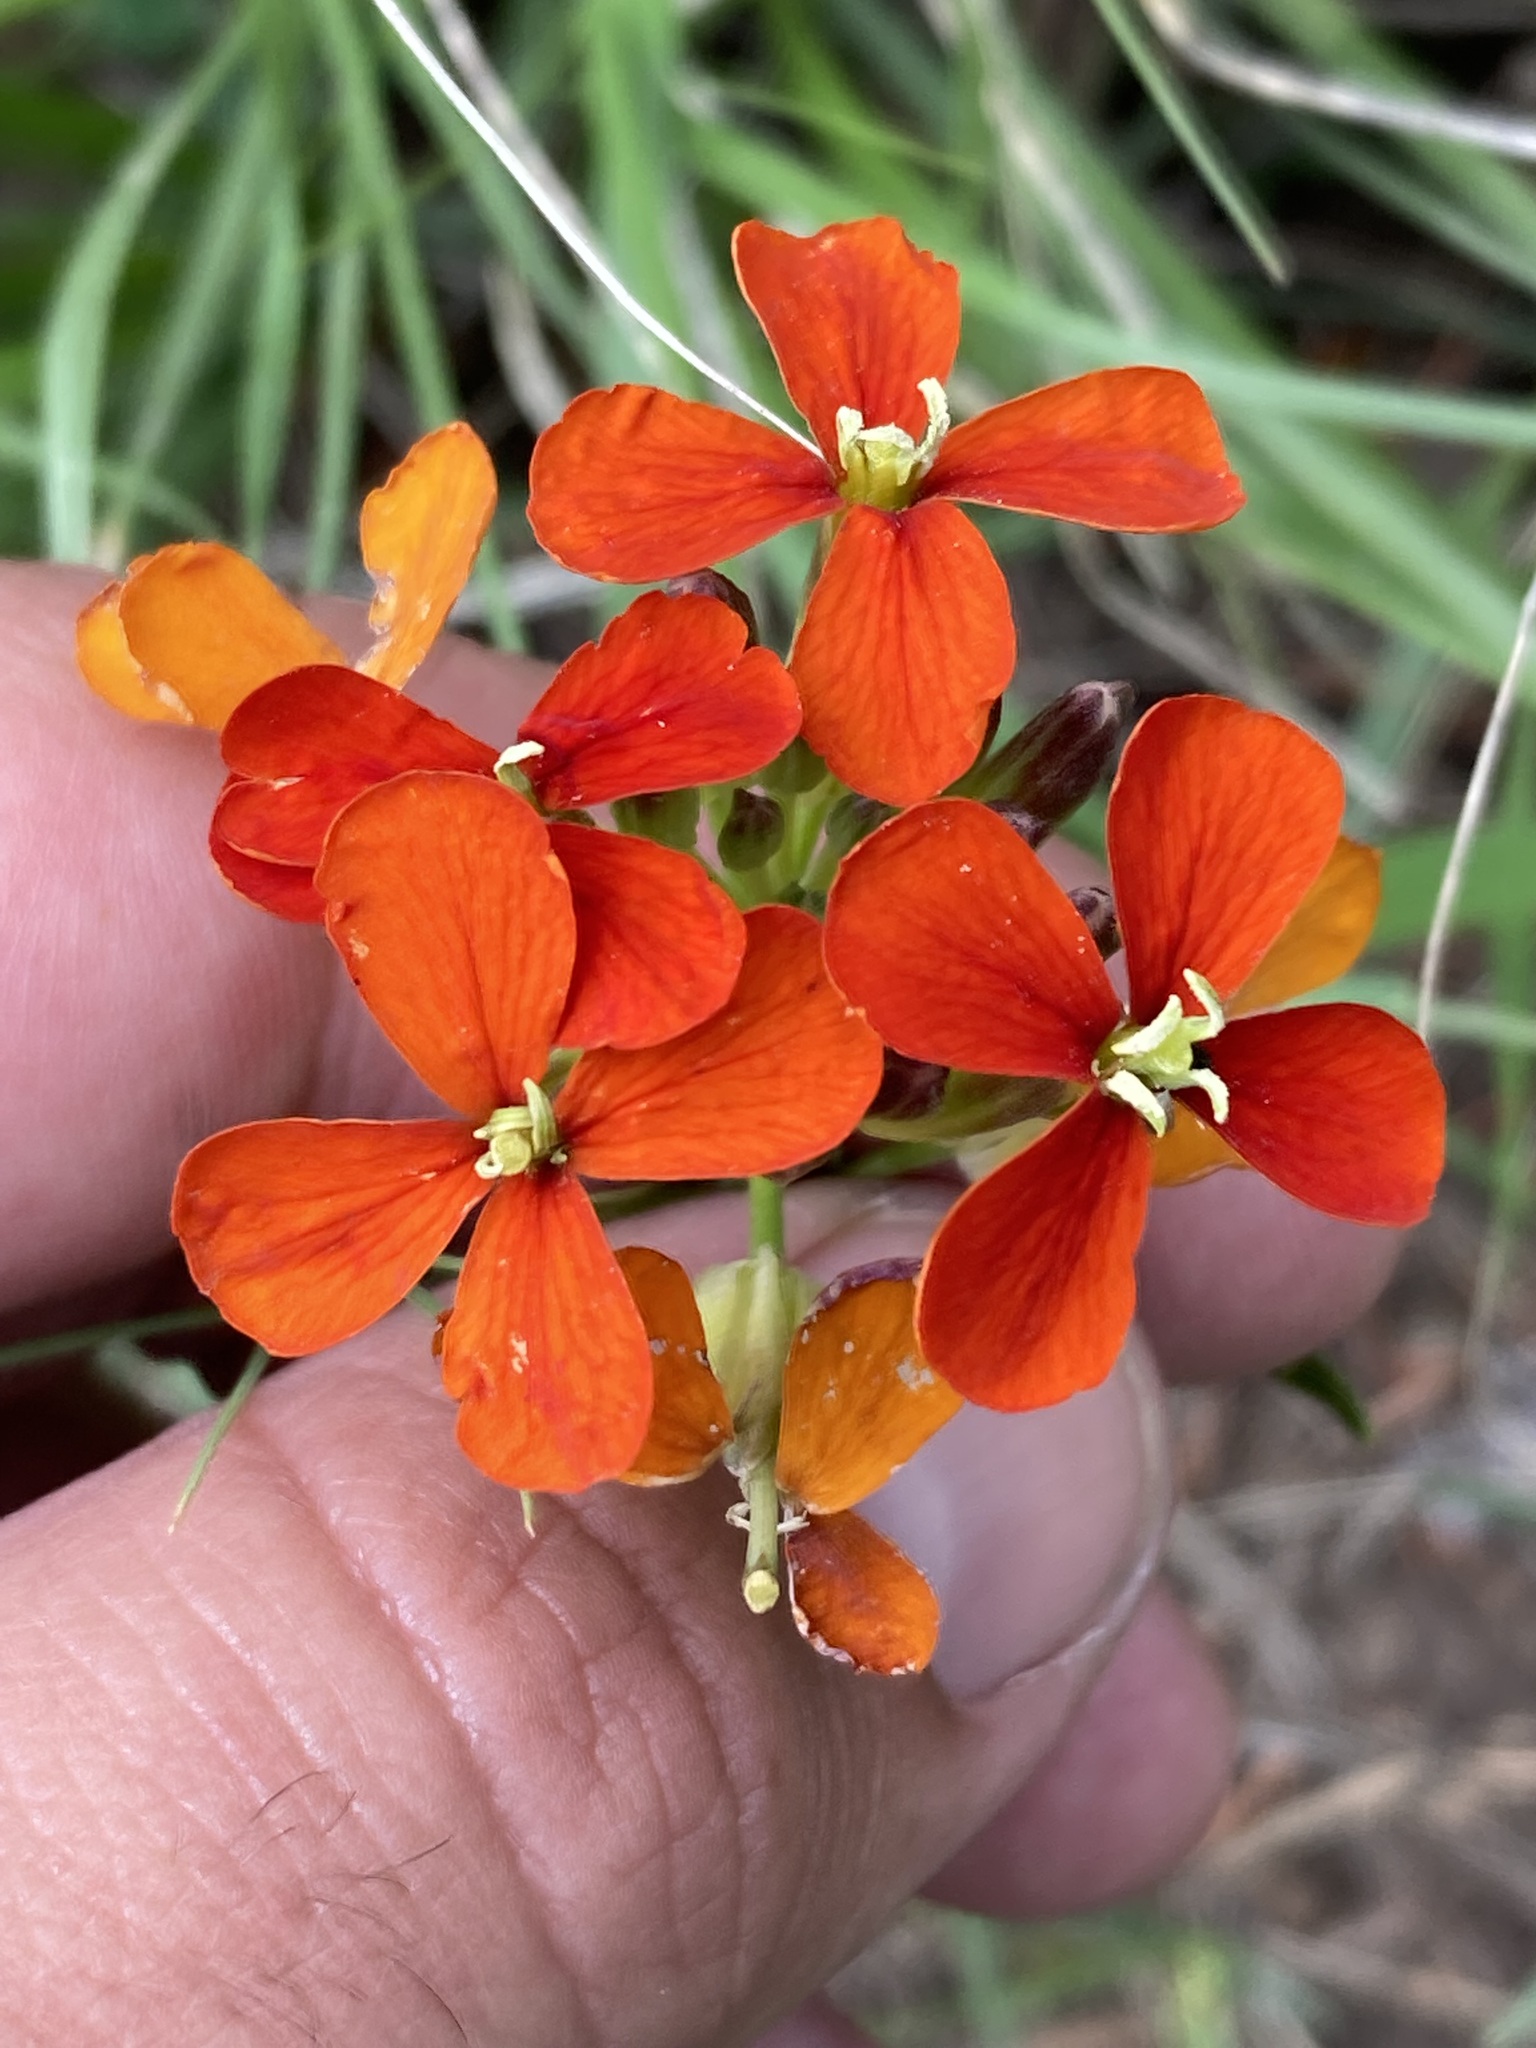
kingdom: Plantae
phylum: Tracheophyta
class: Magnoliopsida
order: Brassicales
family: Brassicaceae
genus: Erysimum
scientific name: Erysimum capitatum
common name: Western wallflower
